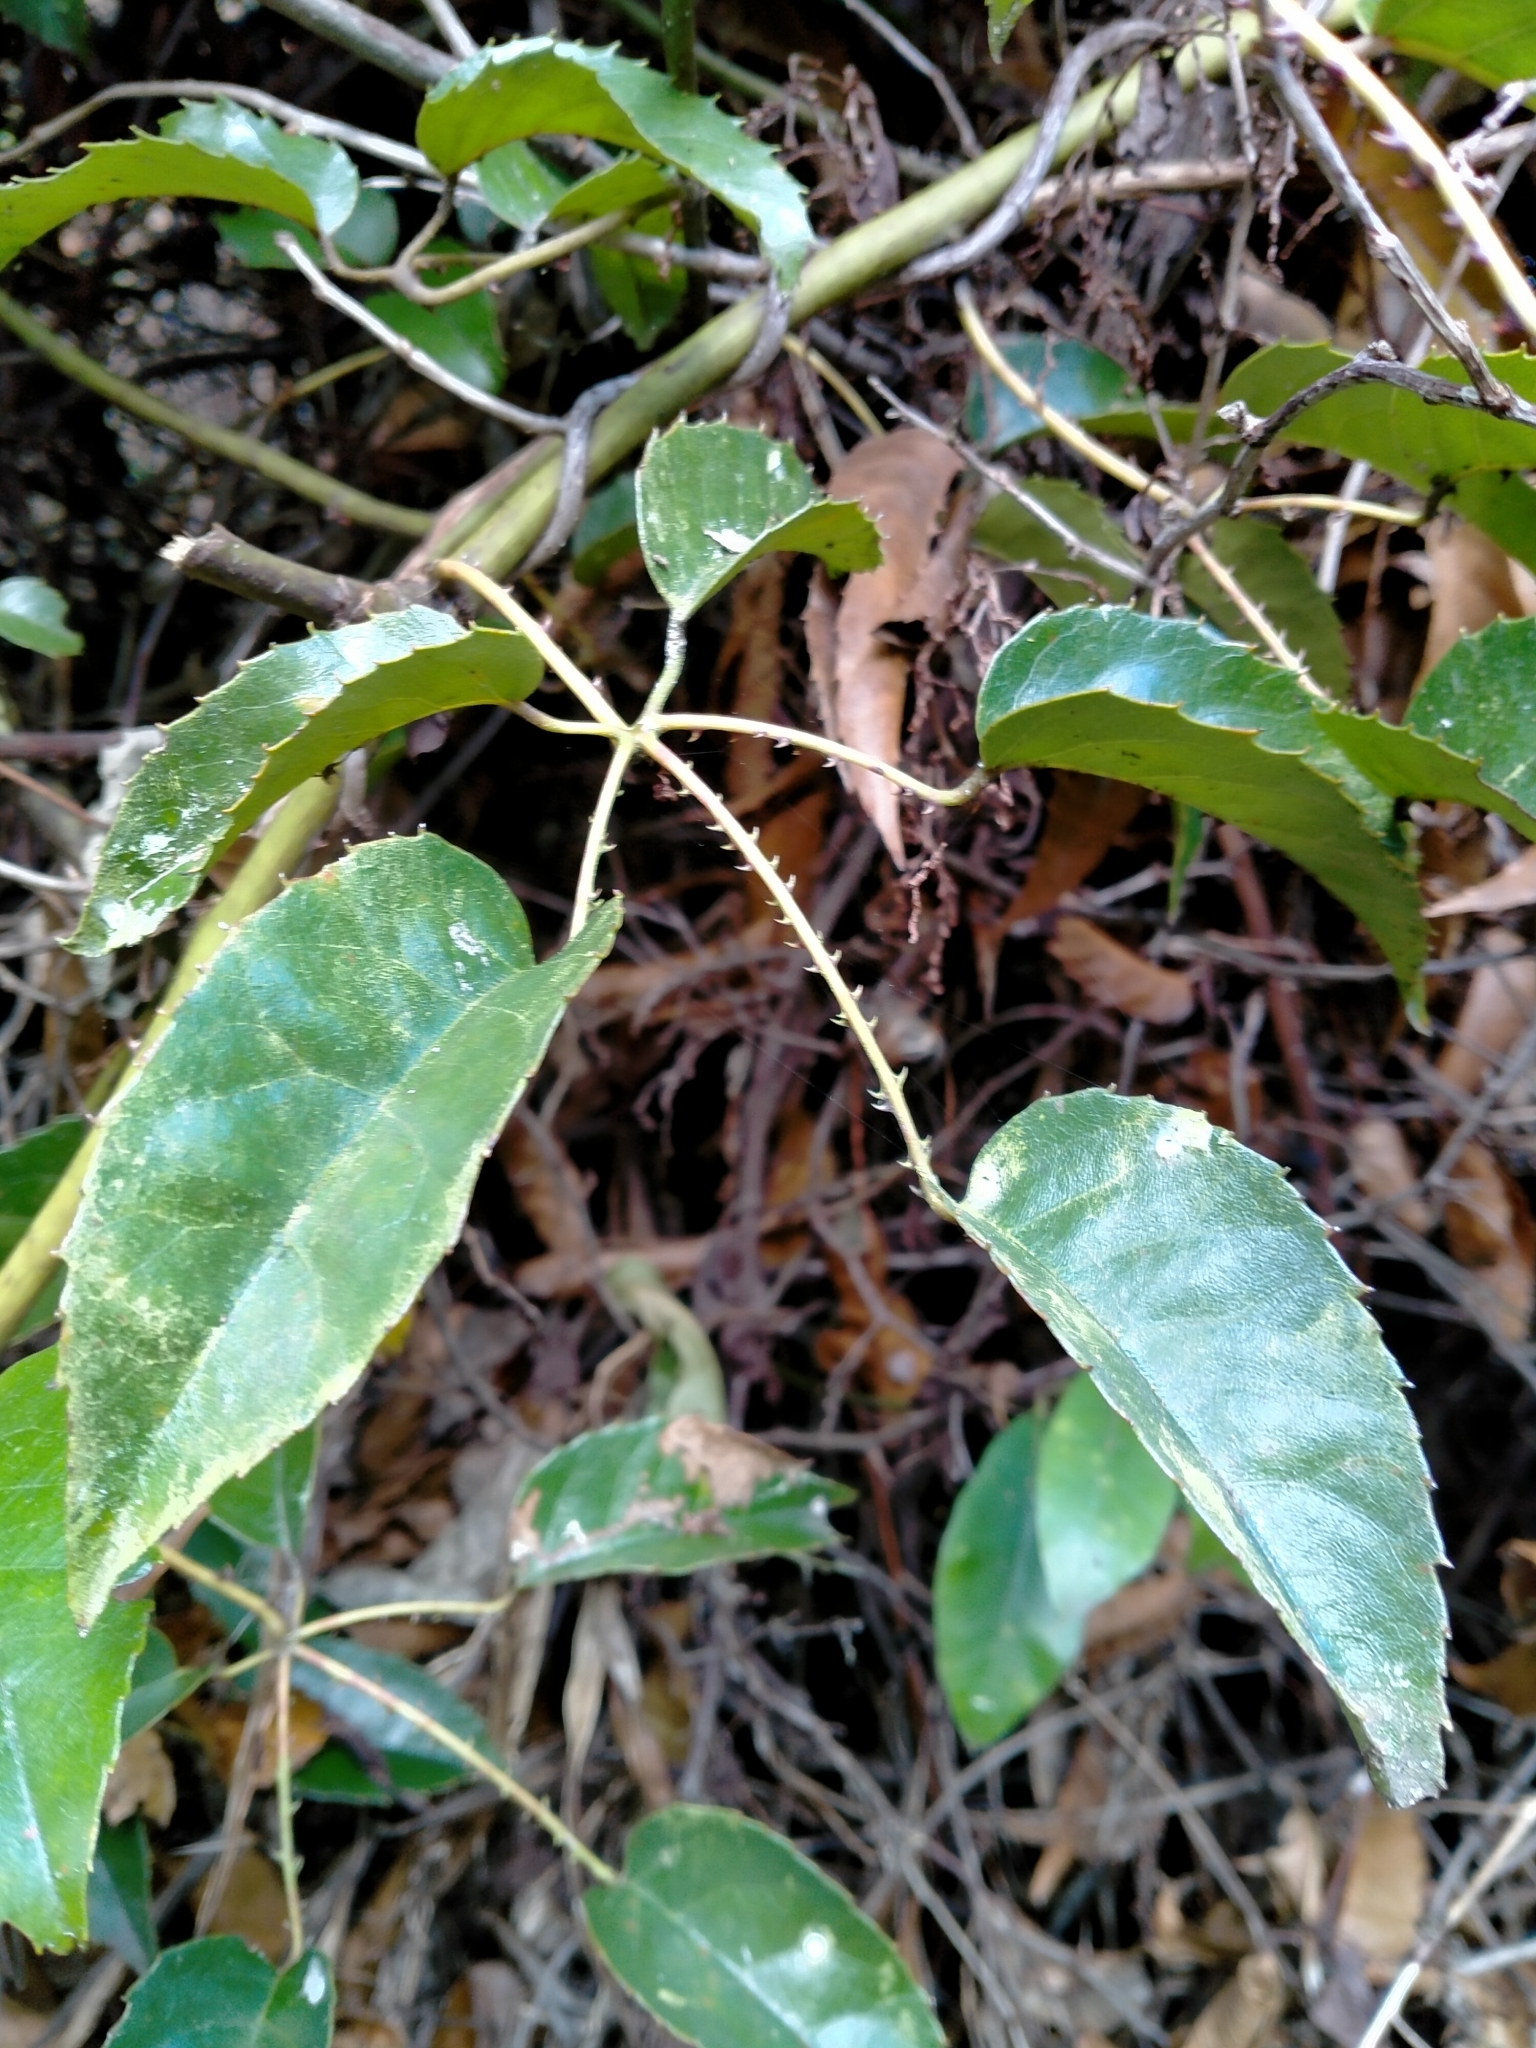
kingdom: Plantae
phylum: Tracheophyta
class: Magnoliopsida
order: Rosales
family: Rosaceae
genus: Rubus
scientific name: Rubus cissoides
